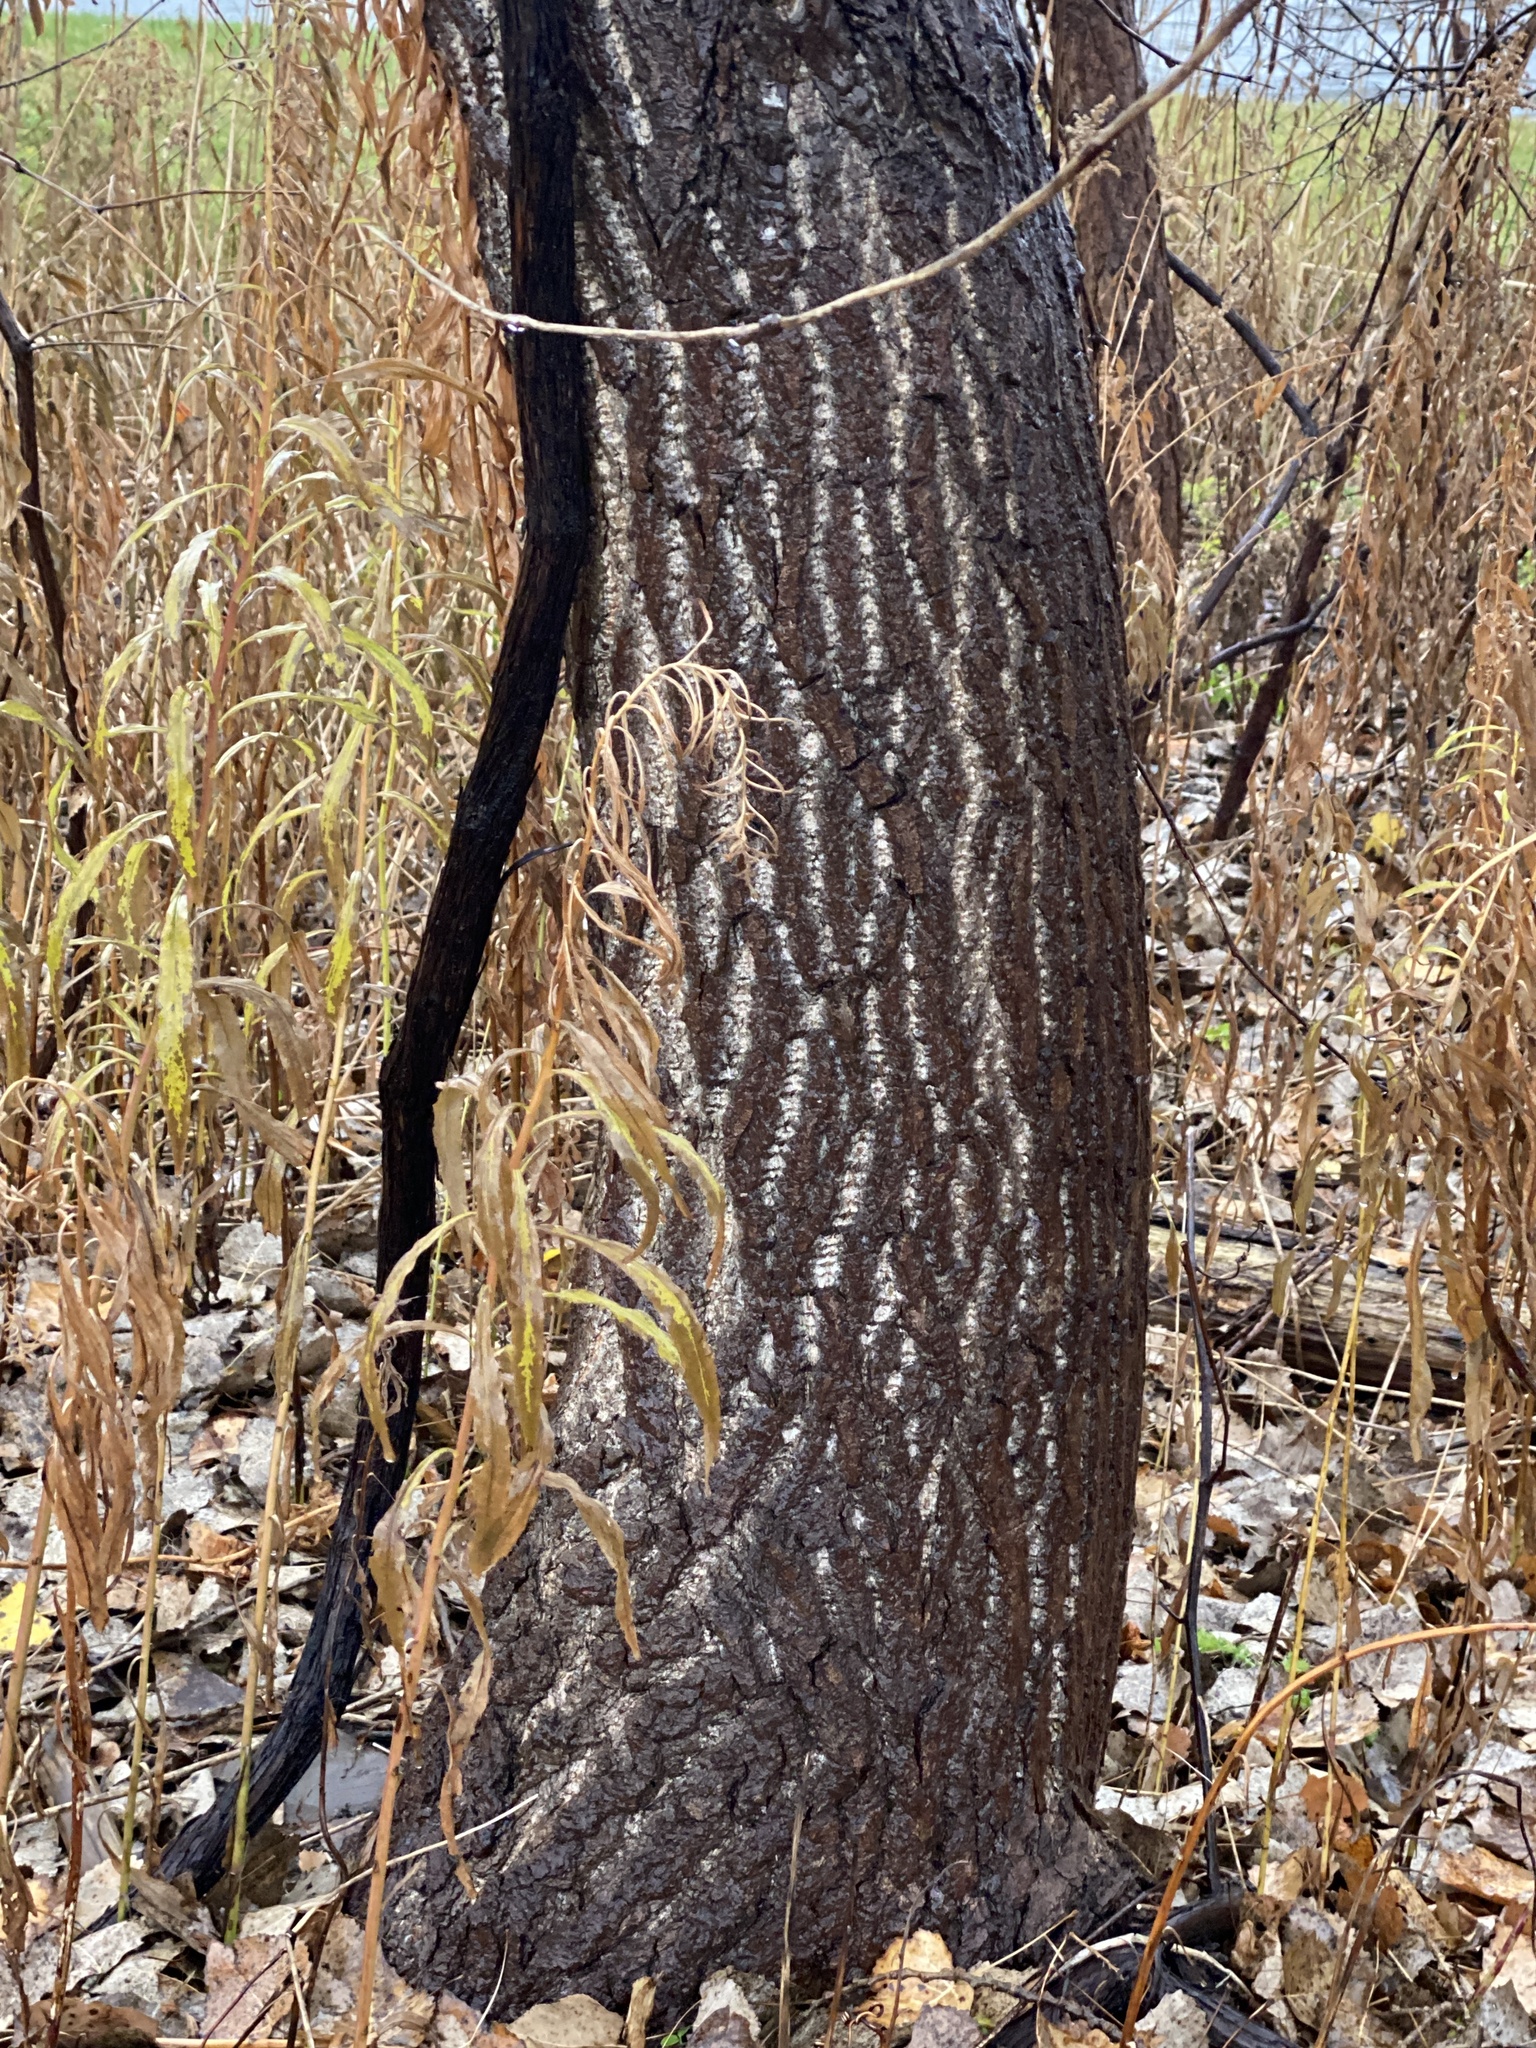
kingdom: Plantae
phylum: Tracheophyta
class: Magnoliopsida
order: Malpighiales
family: Salicaceae
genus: Populus
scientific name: Populus deltoides
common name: Eastern cottonwood
